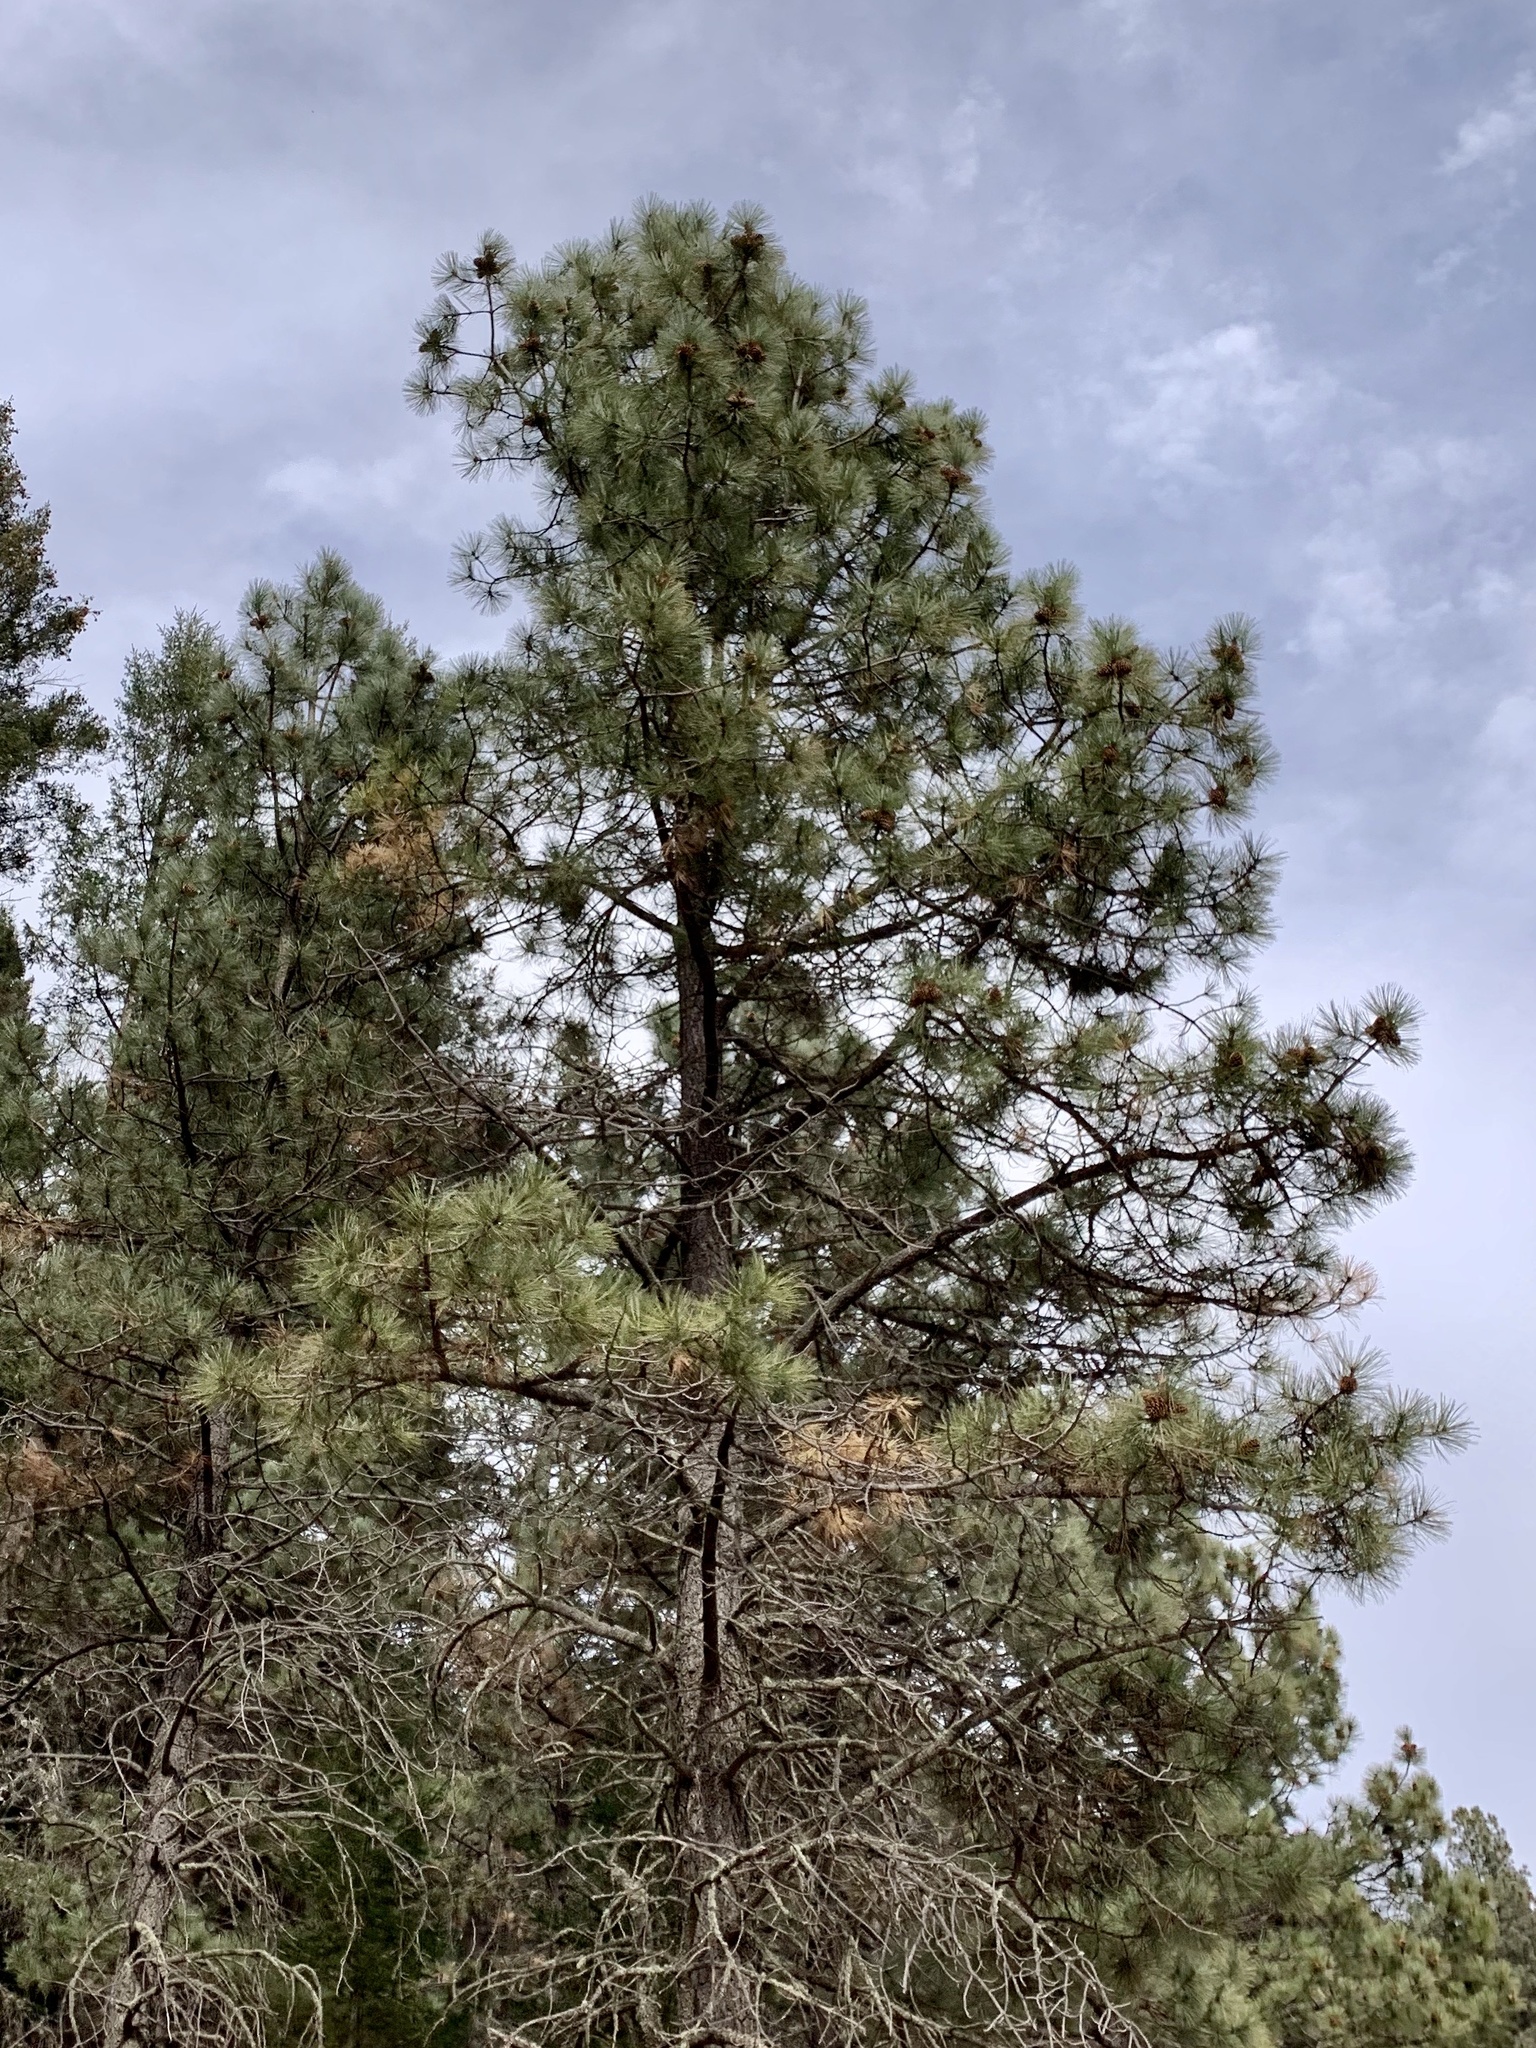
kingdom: Plantae
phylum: Tracheophyta
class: Pinopsida
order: Pinales
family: Pinaceae
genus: Pinus
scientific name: Pinus ponderosa
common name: Western yellow-pine
